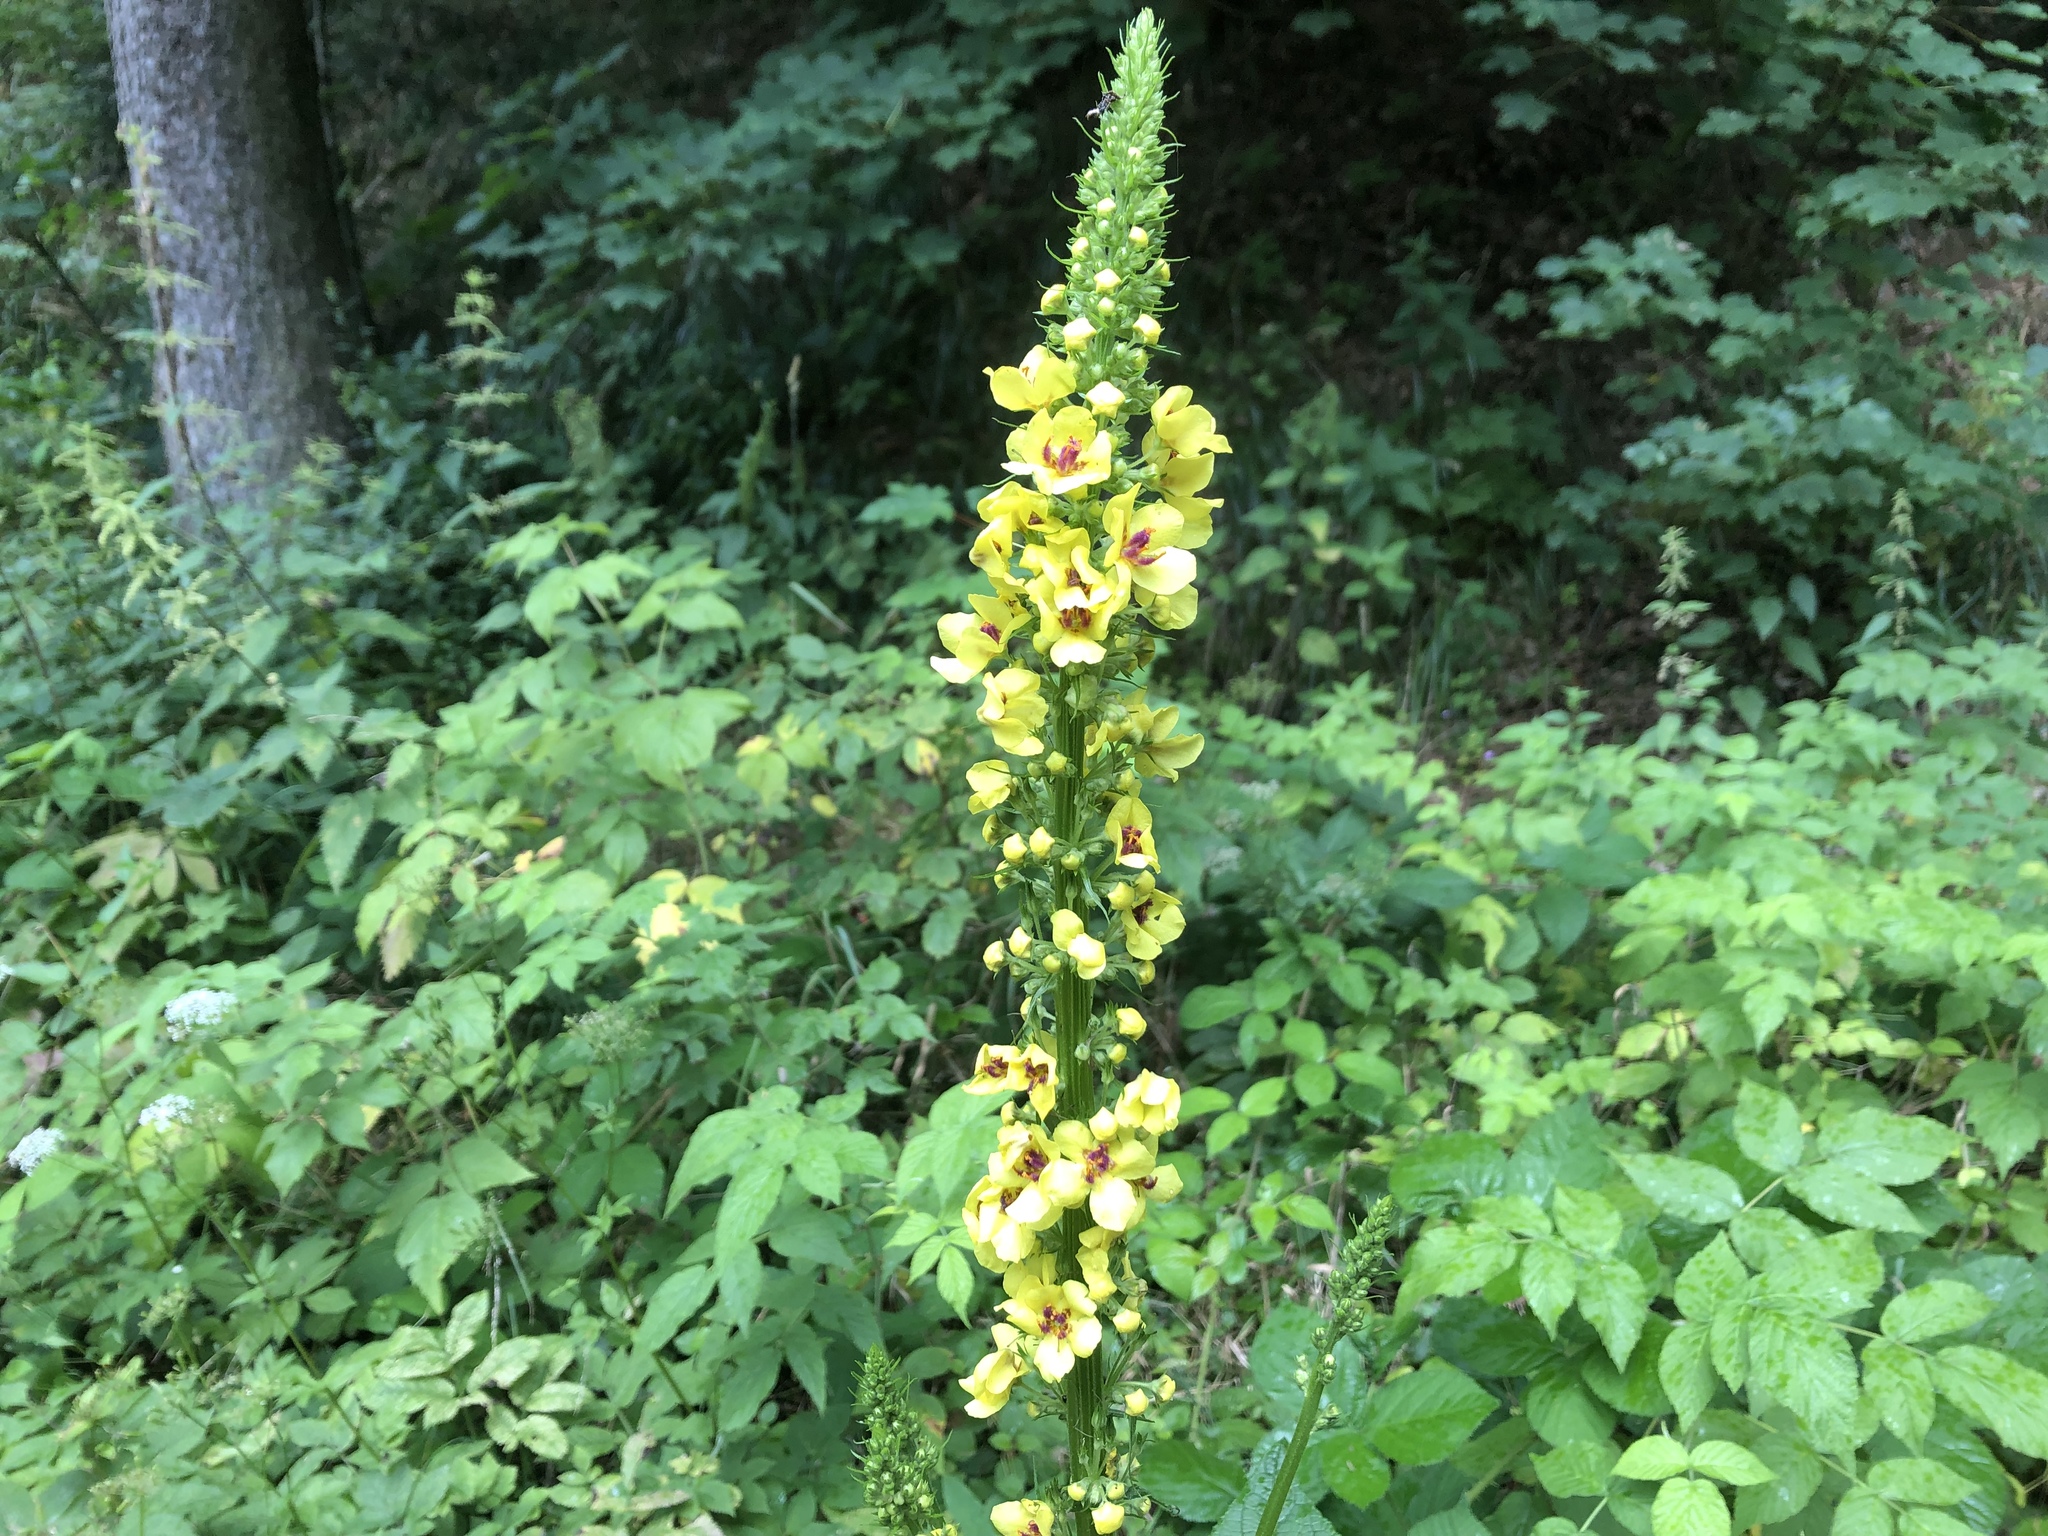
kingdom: Plantae
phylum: Tracheophyta
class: Magnoliopsida
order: Lamiales
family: Scrophulariaceae
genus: Verbascum
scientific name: Verbascum nigrum
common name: Dark mullein
